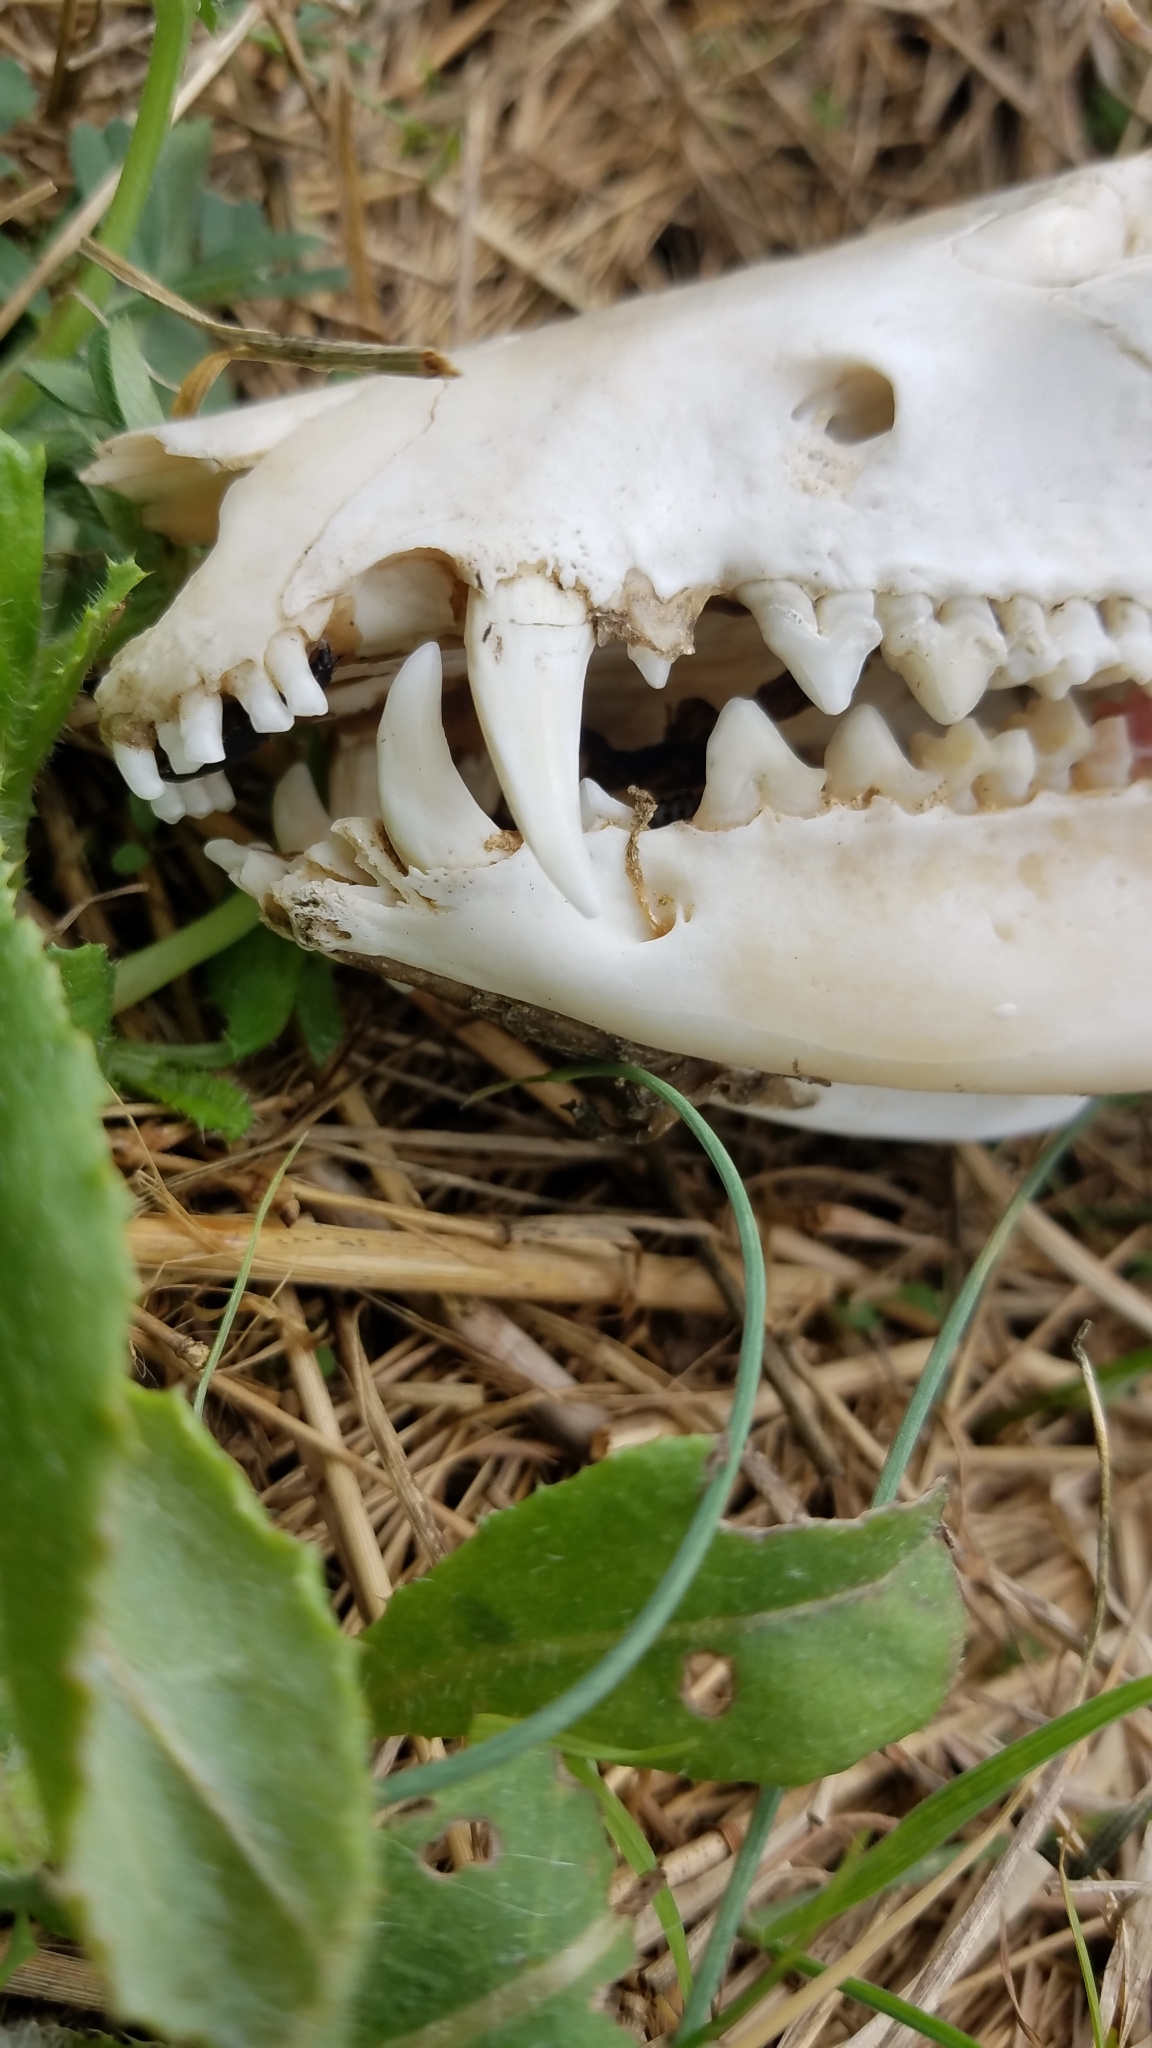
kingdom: Animalia
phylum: Chordata
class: Mammalia
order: Didelphimorphia
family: Didelphidae
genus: Didelphis
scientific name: Didelphis virginiana
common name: Virginia opossum
